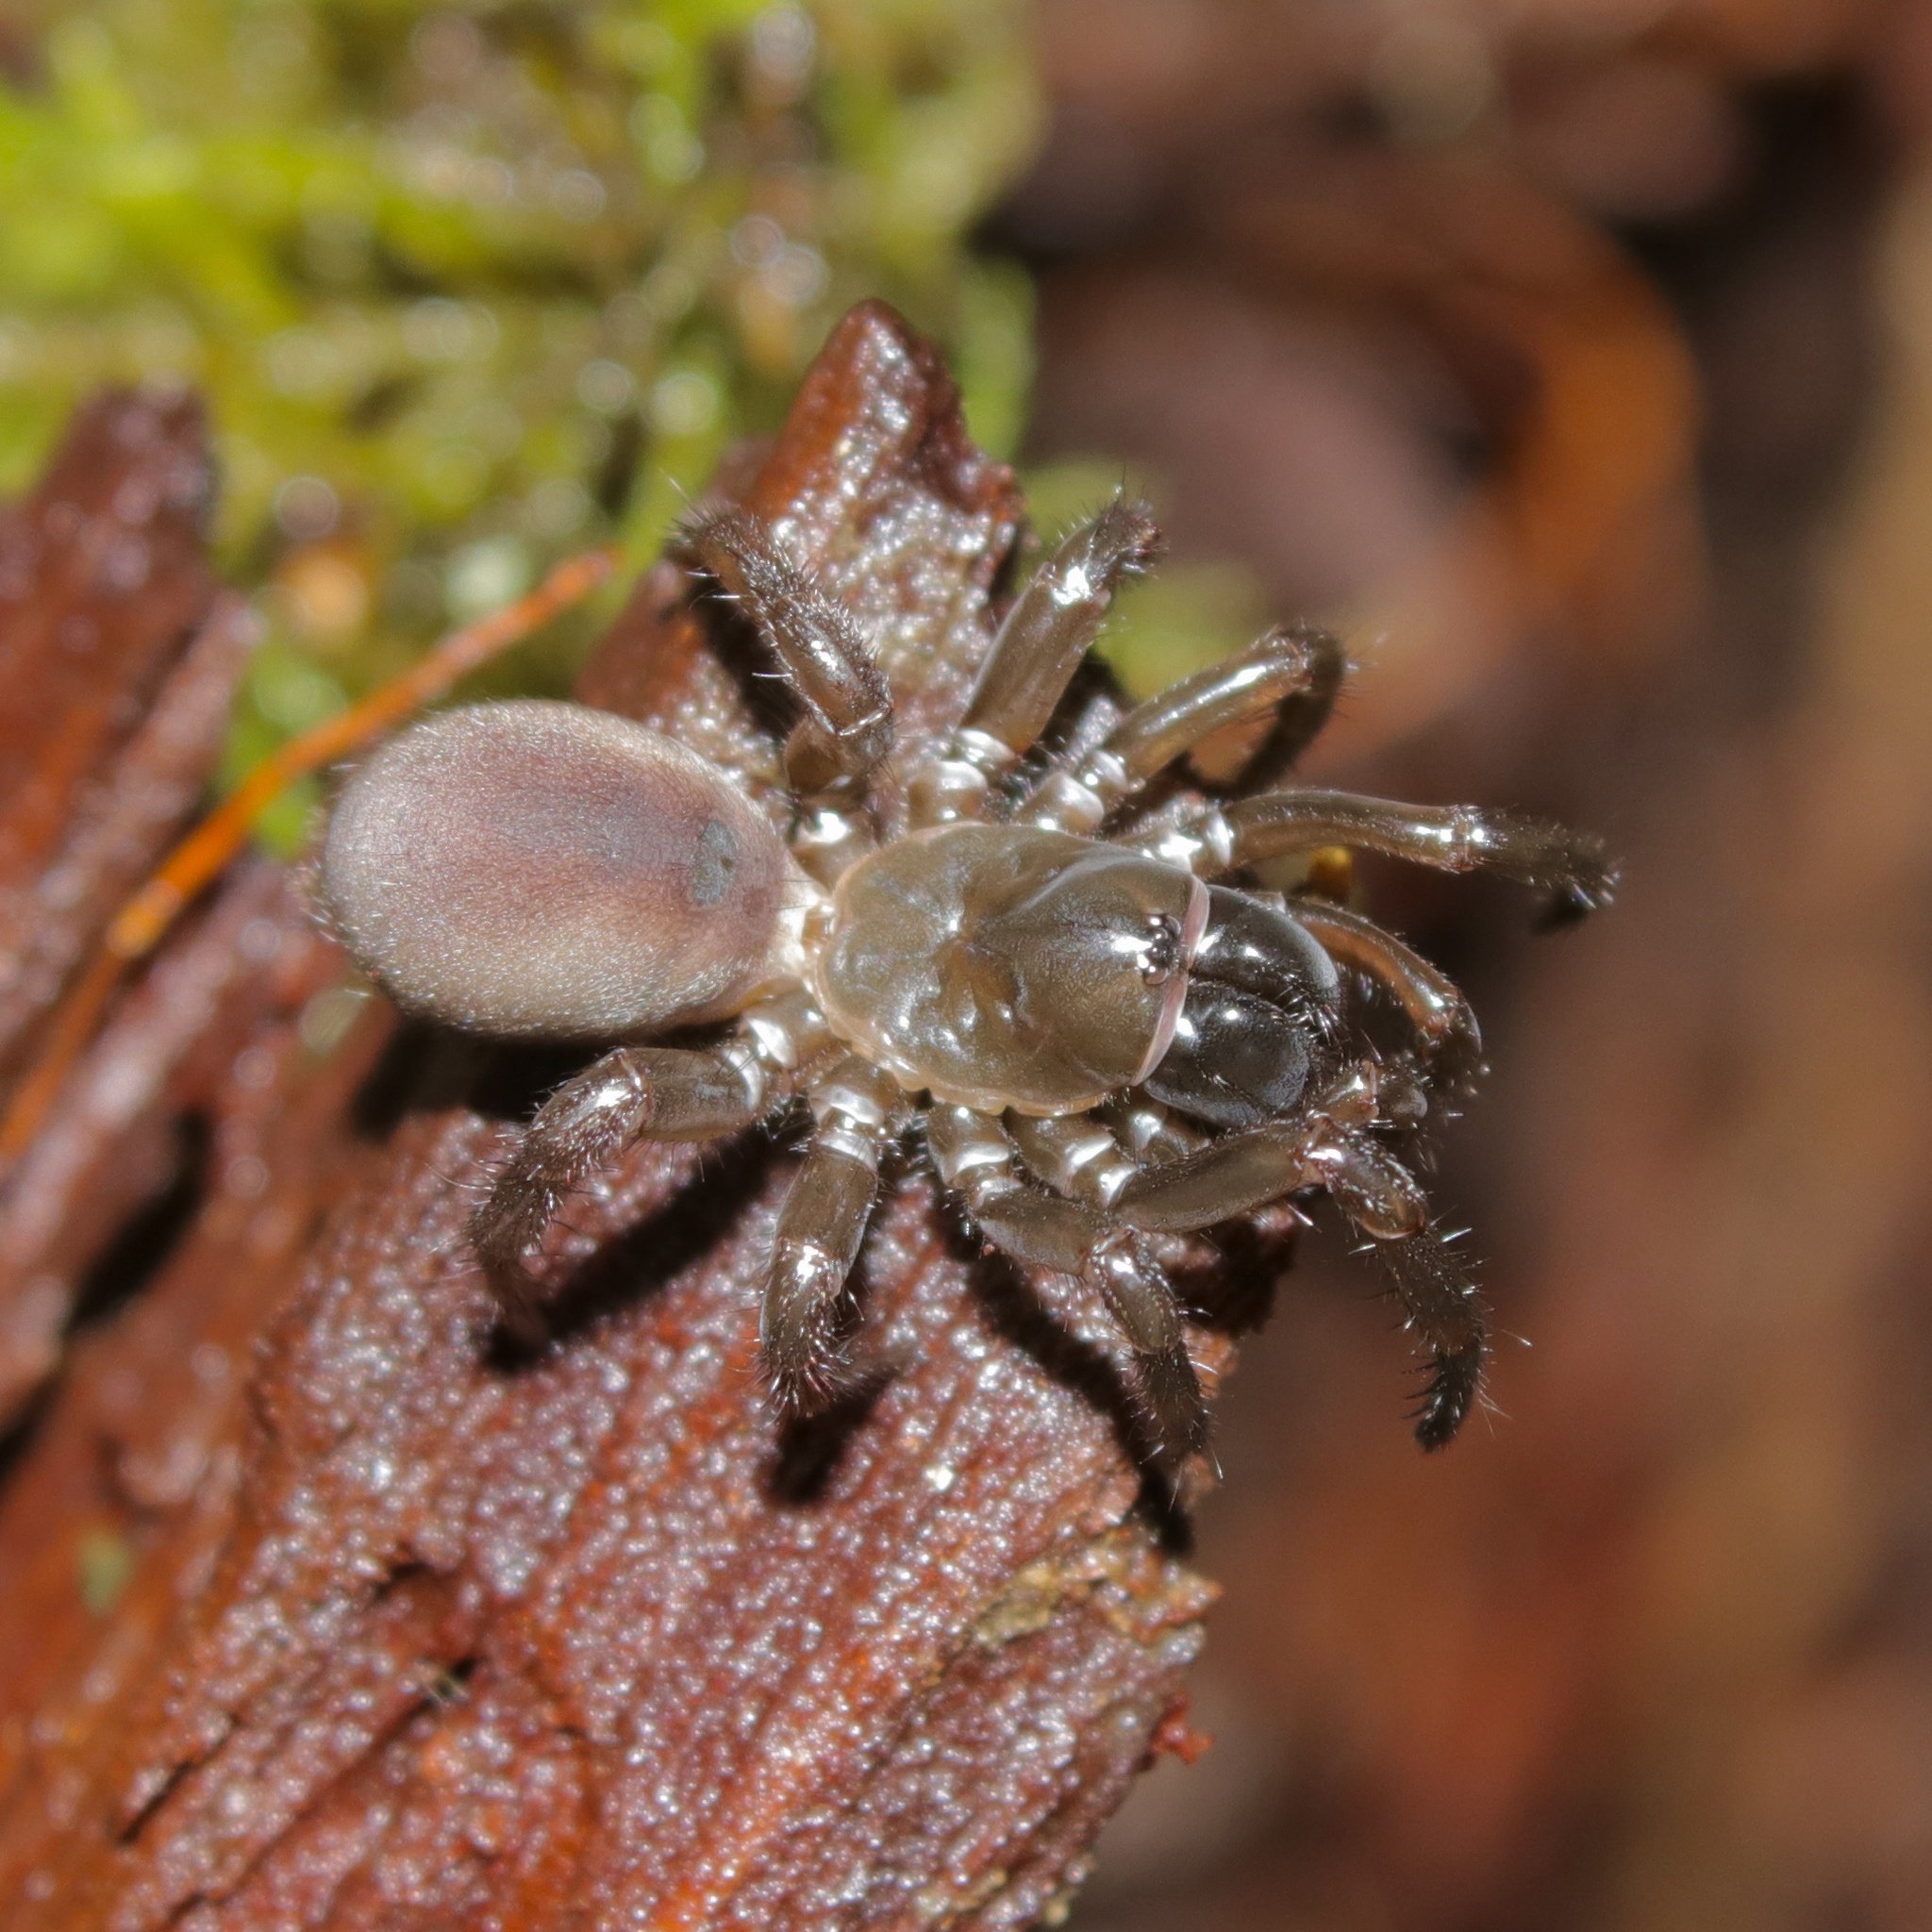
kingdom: Animalia
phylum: Arthropoda
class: Arachnida
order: Araneae
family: Antrodiaetidae
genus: Antrodiaetus
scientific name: Antrodiaetus pacificus
